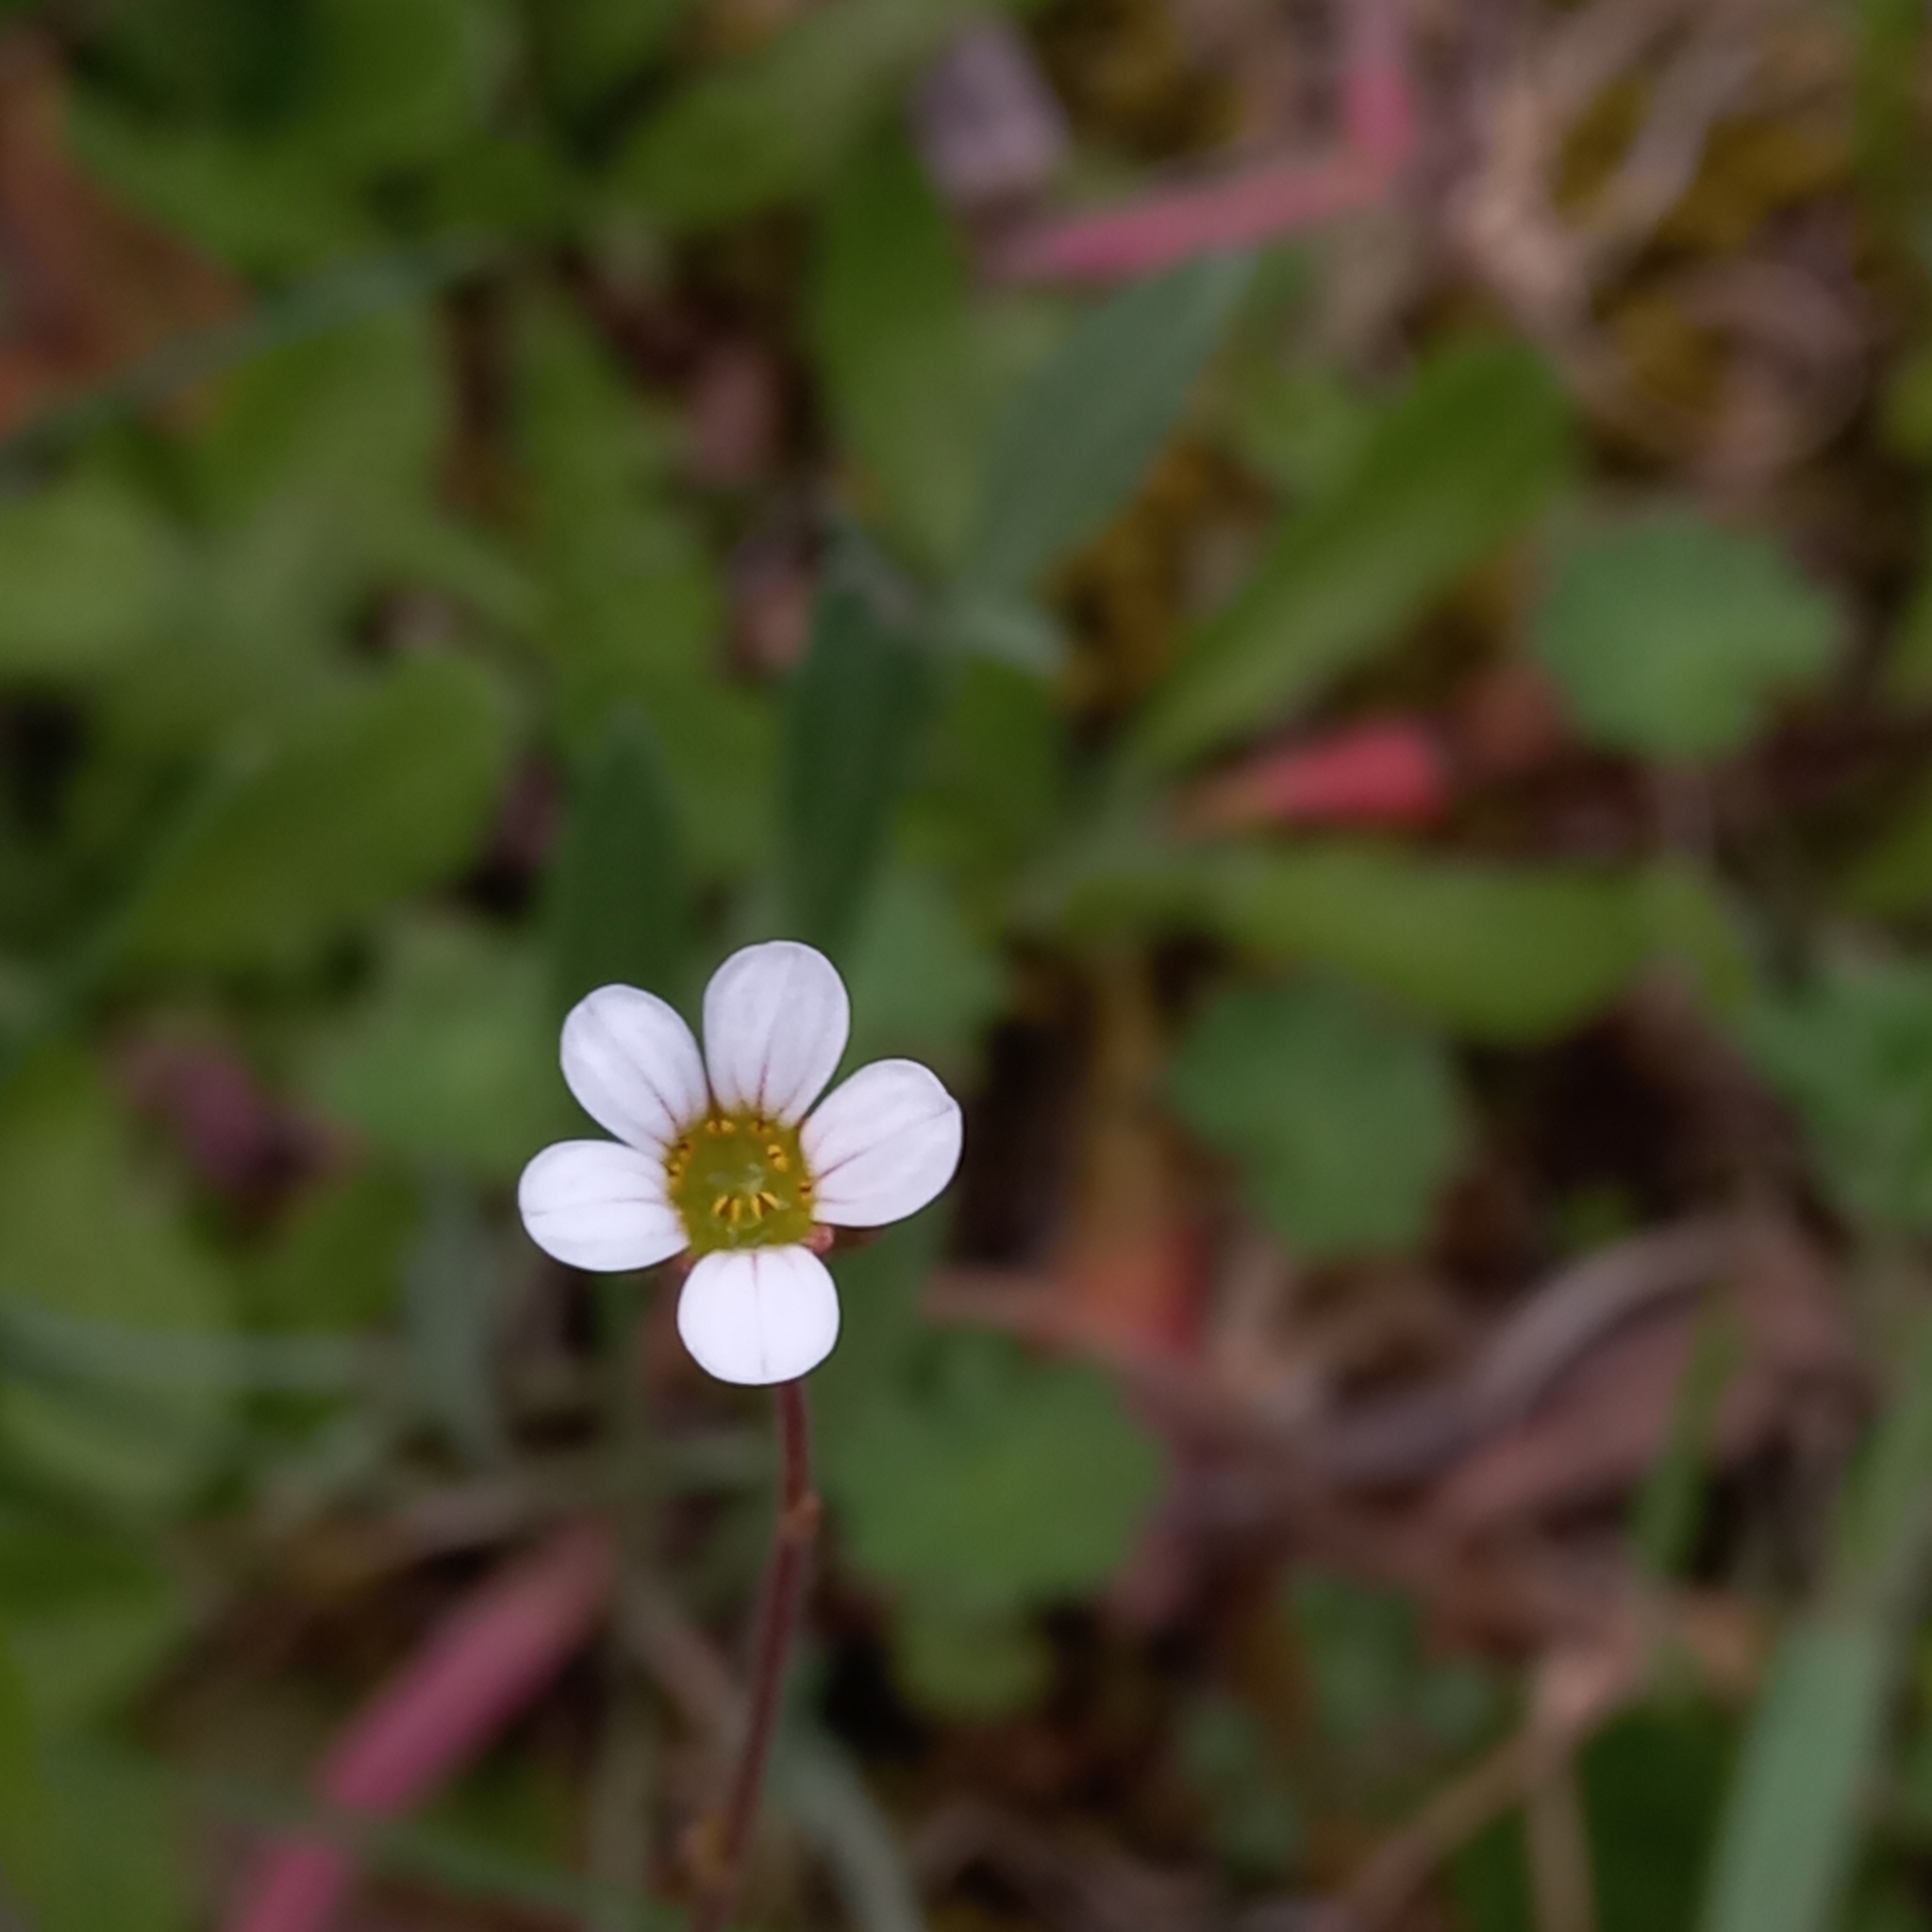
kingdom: Plantae
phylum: Tracheophyta
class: Magnoliopsida
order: Saxifragales
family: Saxifragaceae
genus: Saxifraga
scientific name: Saxifraga dichotoma
